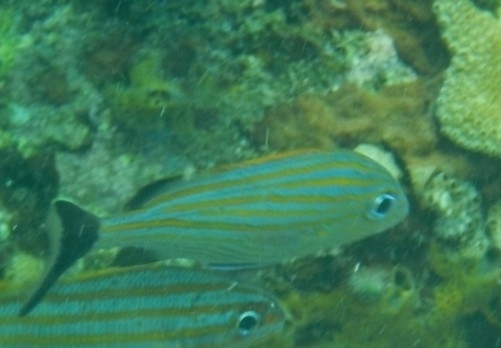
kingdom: Animalia
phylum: Chordata
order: Perciformes
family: Haemulidae
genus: Haemulon
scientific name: Haemulon carbonarium
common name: Caesar grunt
